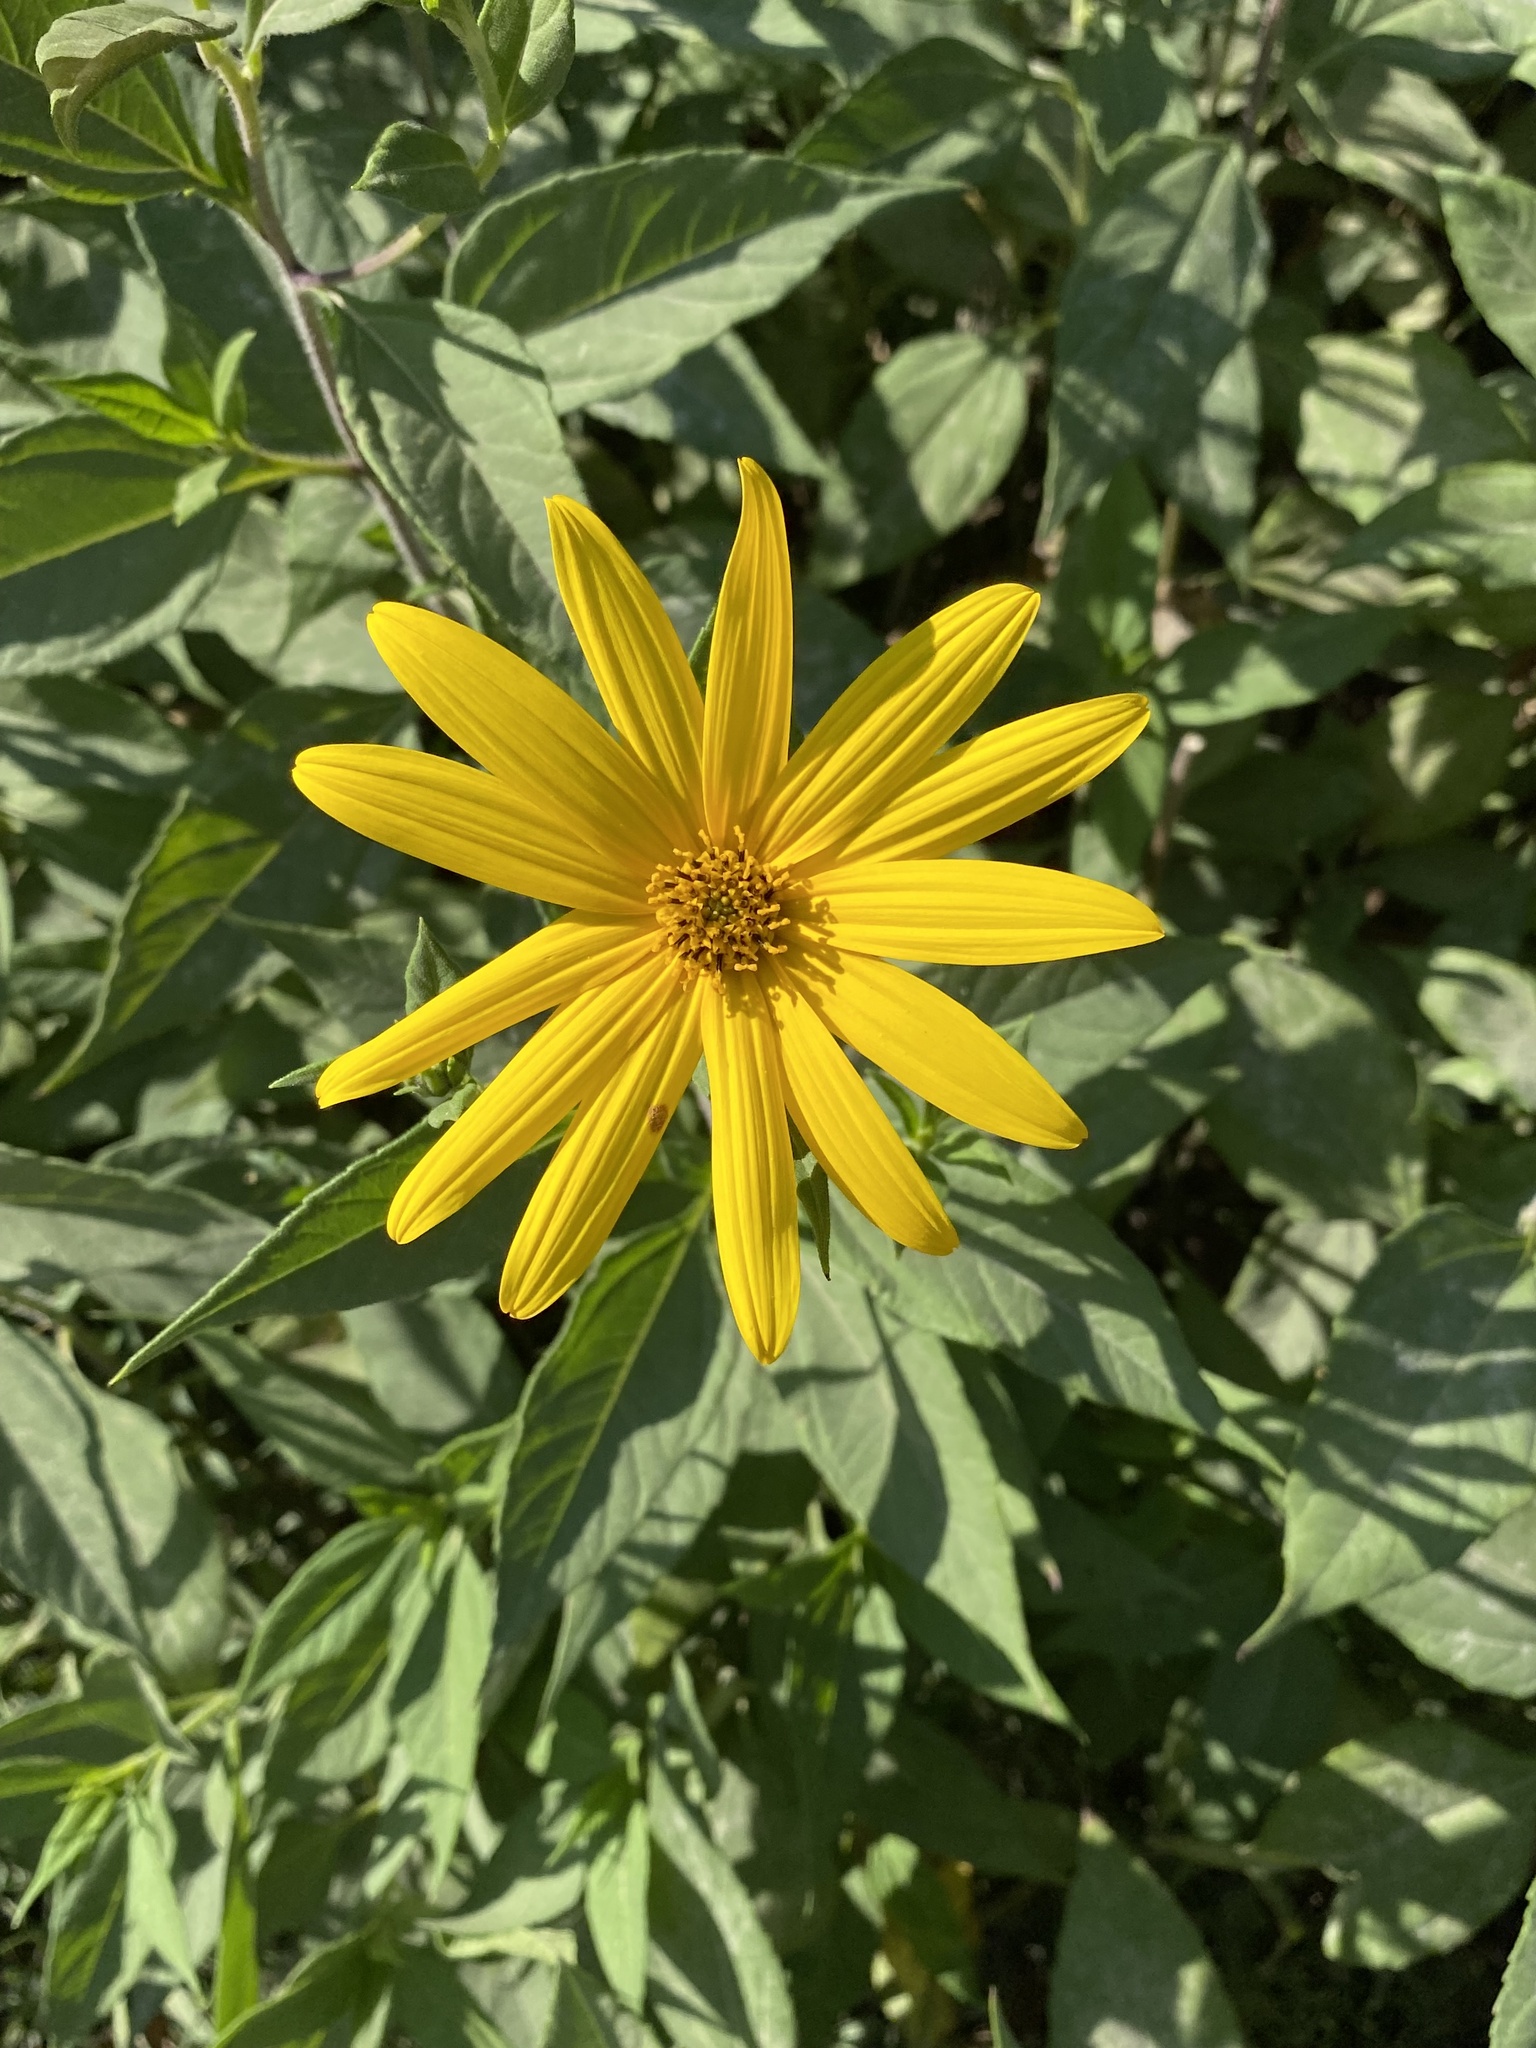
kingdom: Plantae
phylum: Tracheophyta
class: Magnoliopsida
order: Asterales
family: Asteraceae
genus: Helianthus
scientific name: Helianthus tuberosus
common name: Jerusalem artichoke
